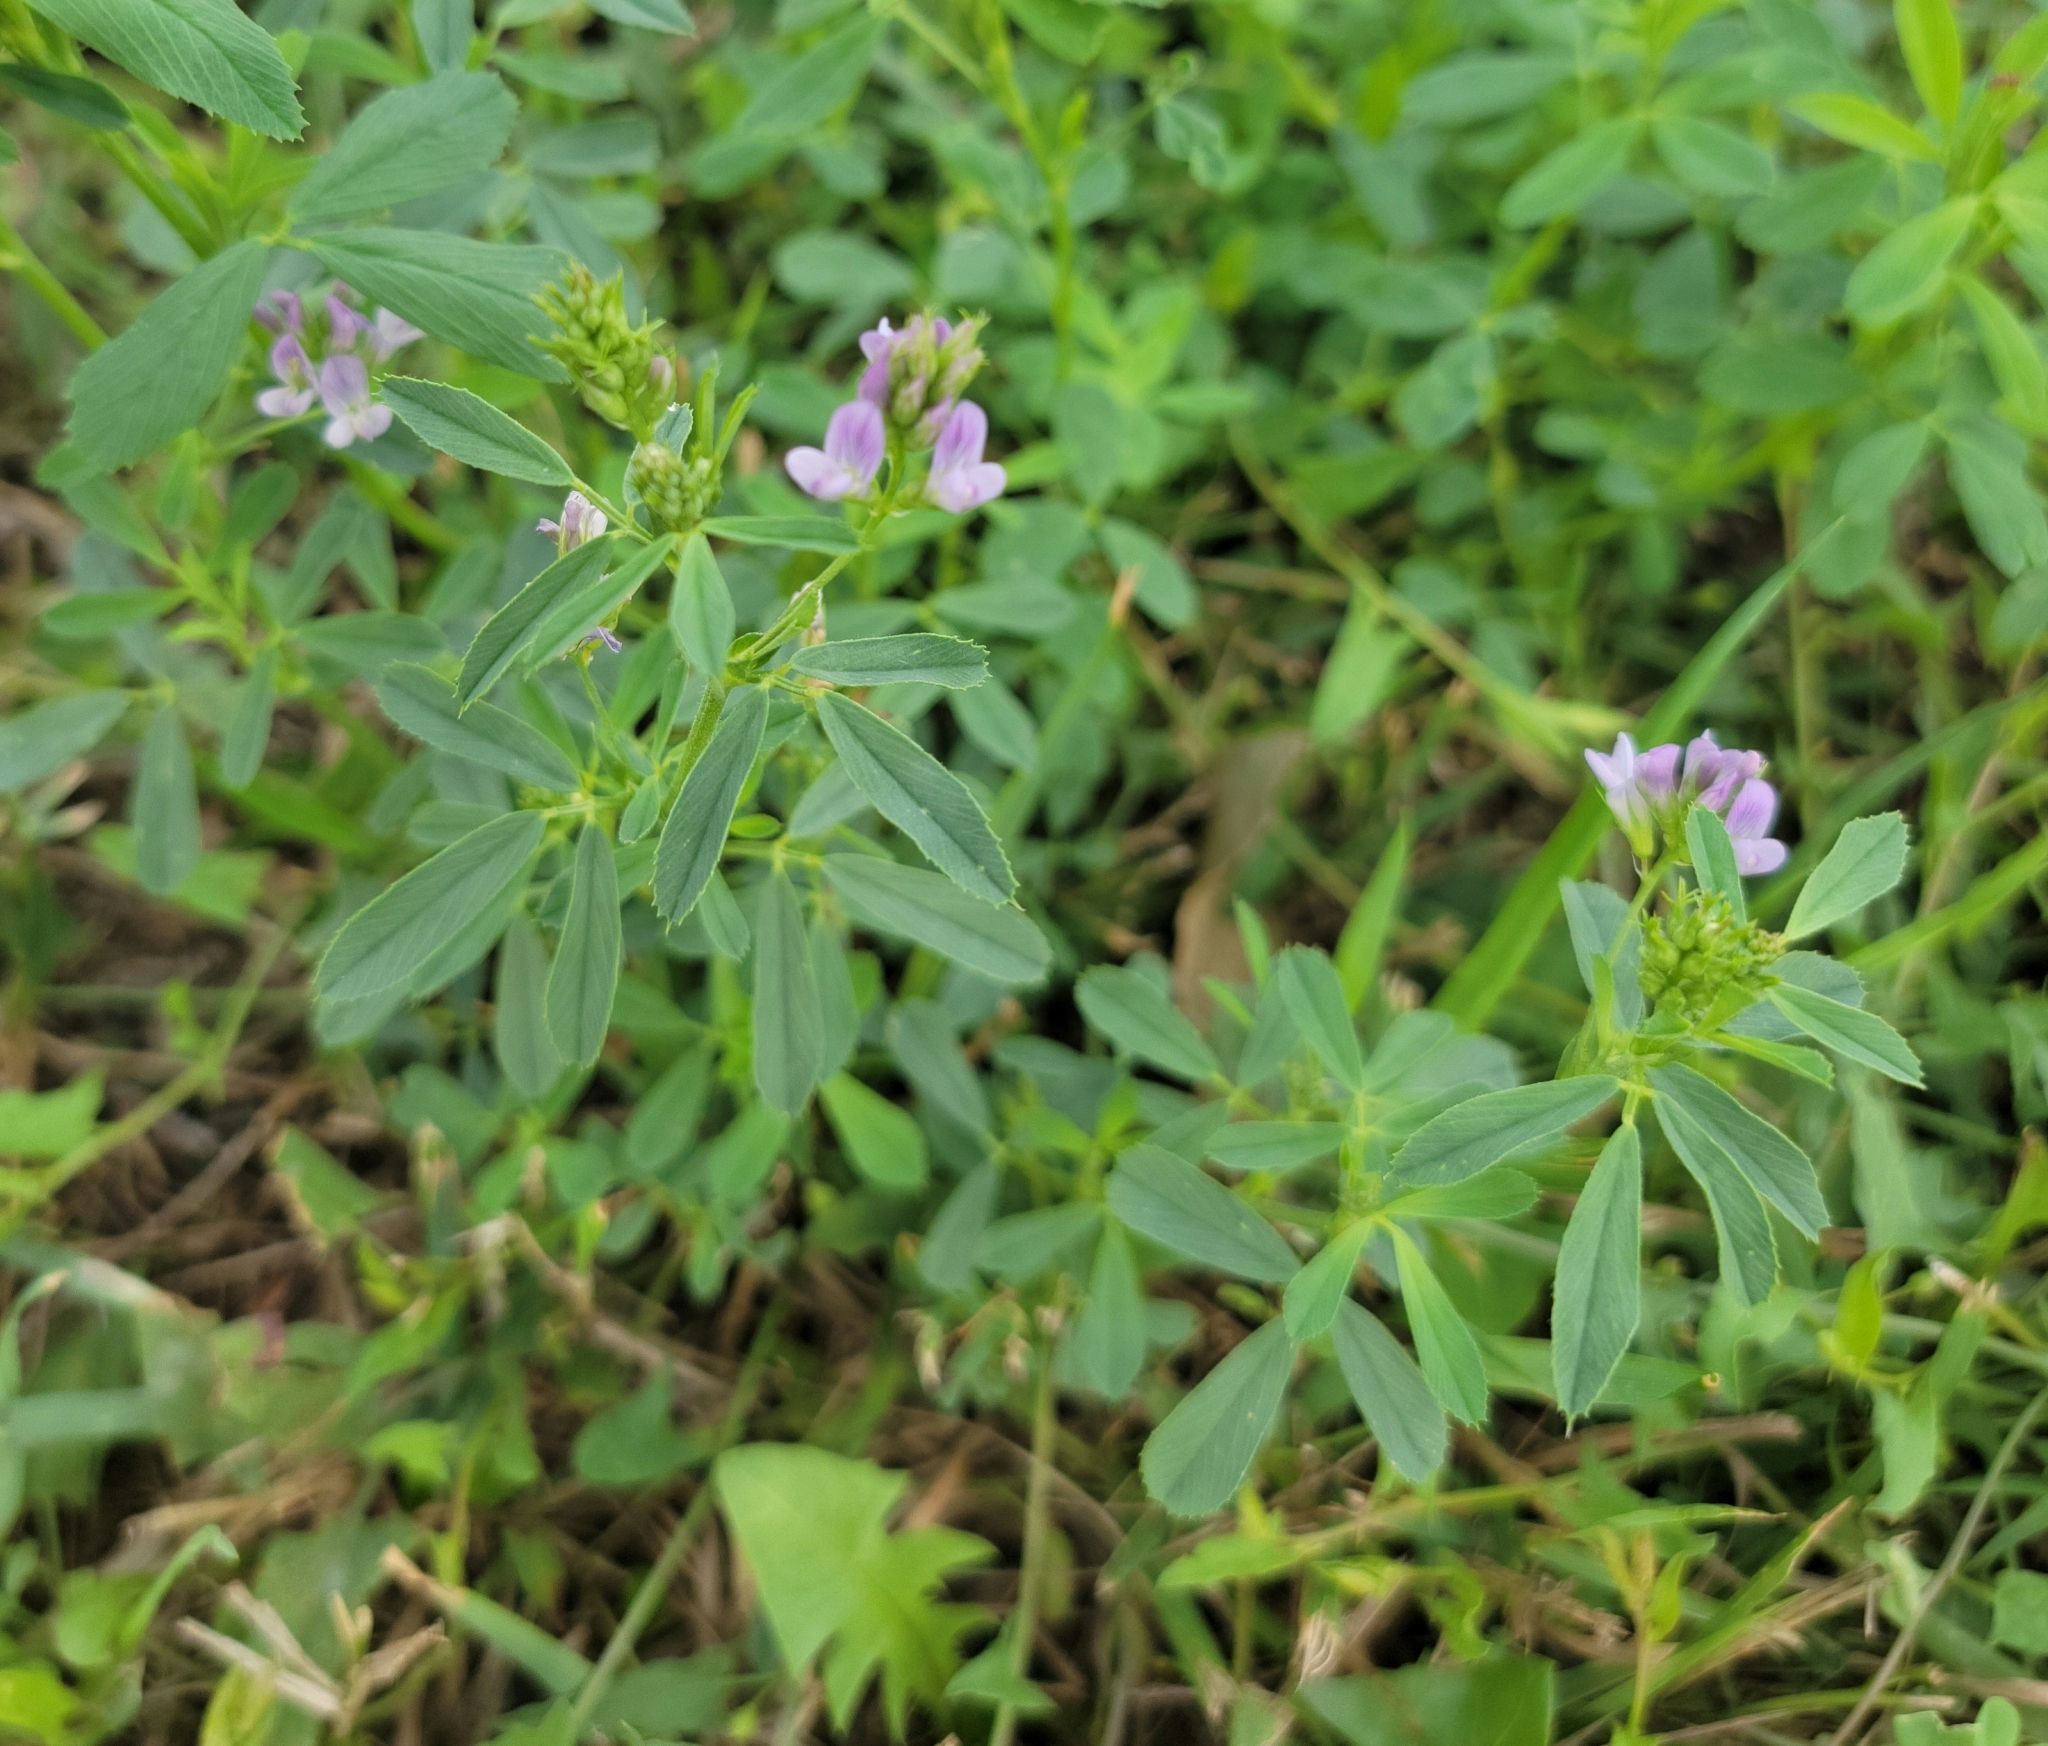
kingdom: Plantae
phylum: Tracheophyta
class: Magnoliopsida
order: Fabales
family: Fabaceae
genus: Medicago
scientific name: Medicago sativa
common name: Alfalfa
